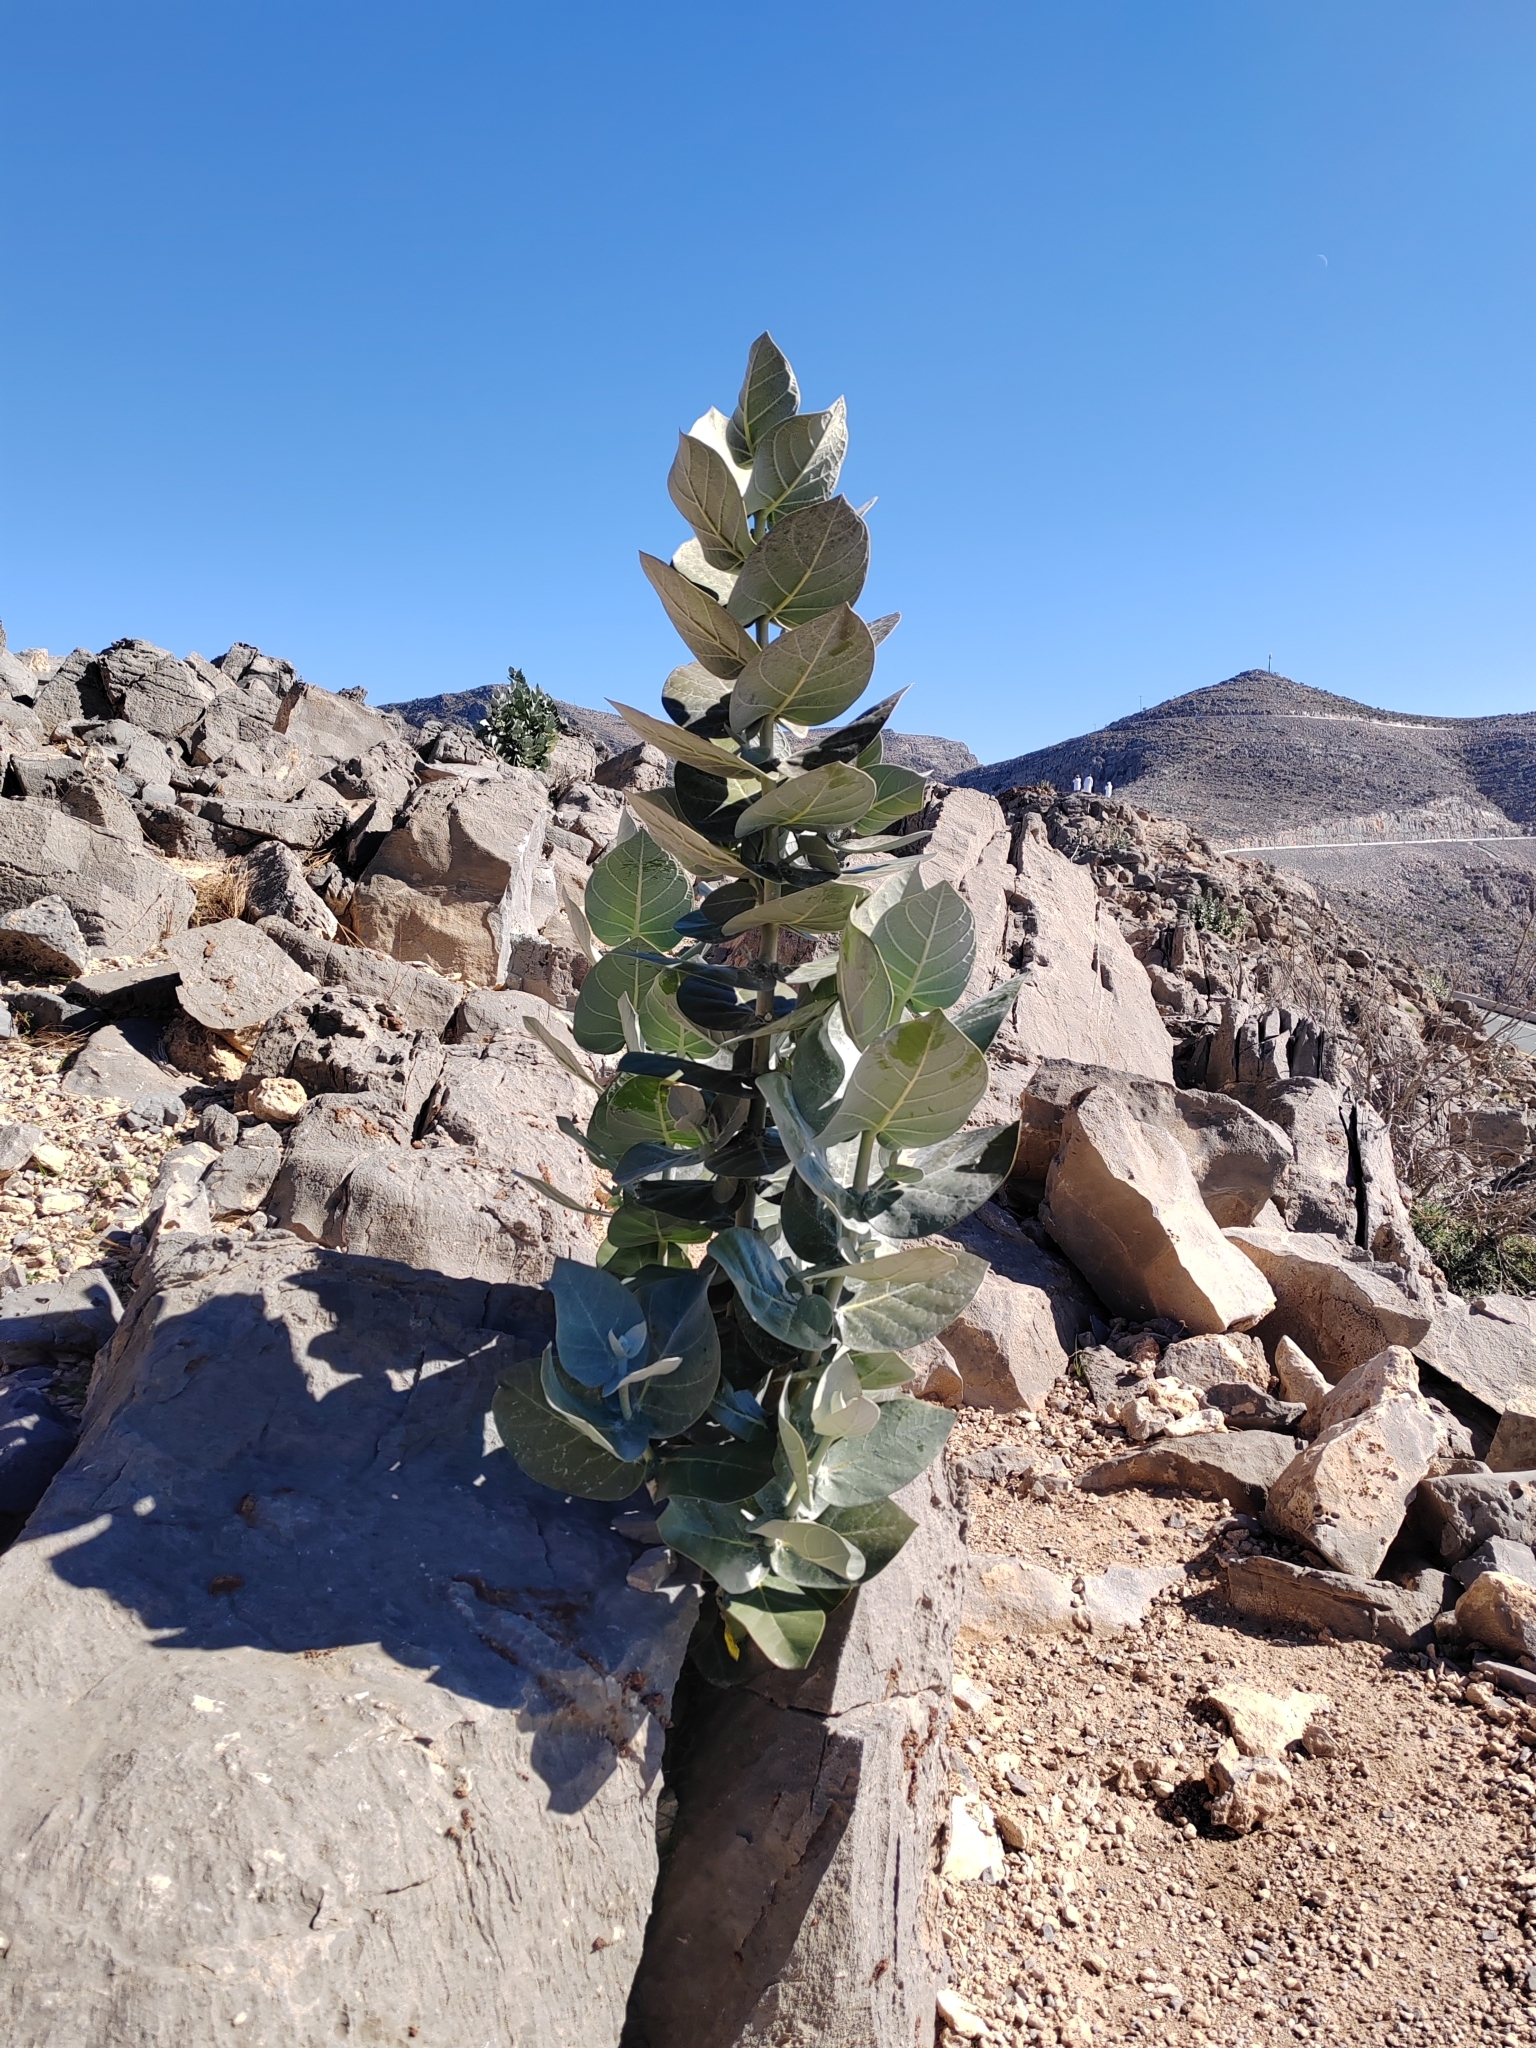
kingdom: Plantae
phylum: Tracheophyta
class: Magnoliopsida
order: Gentianales
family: Apocynaceae
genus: Calotropis
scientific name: Calotropis procera
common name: Roostertree
